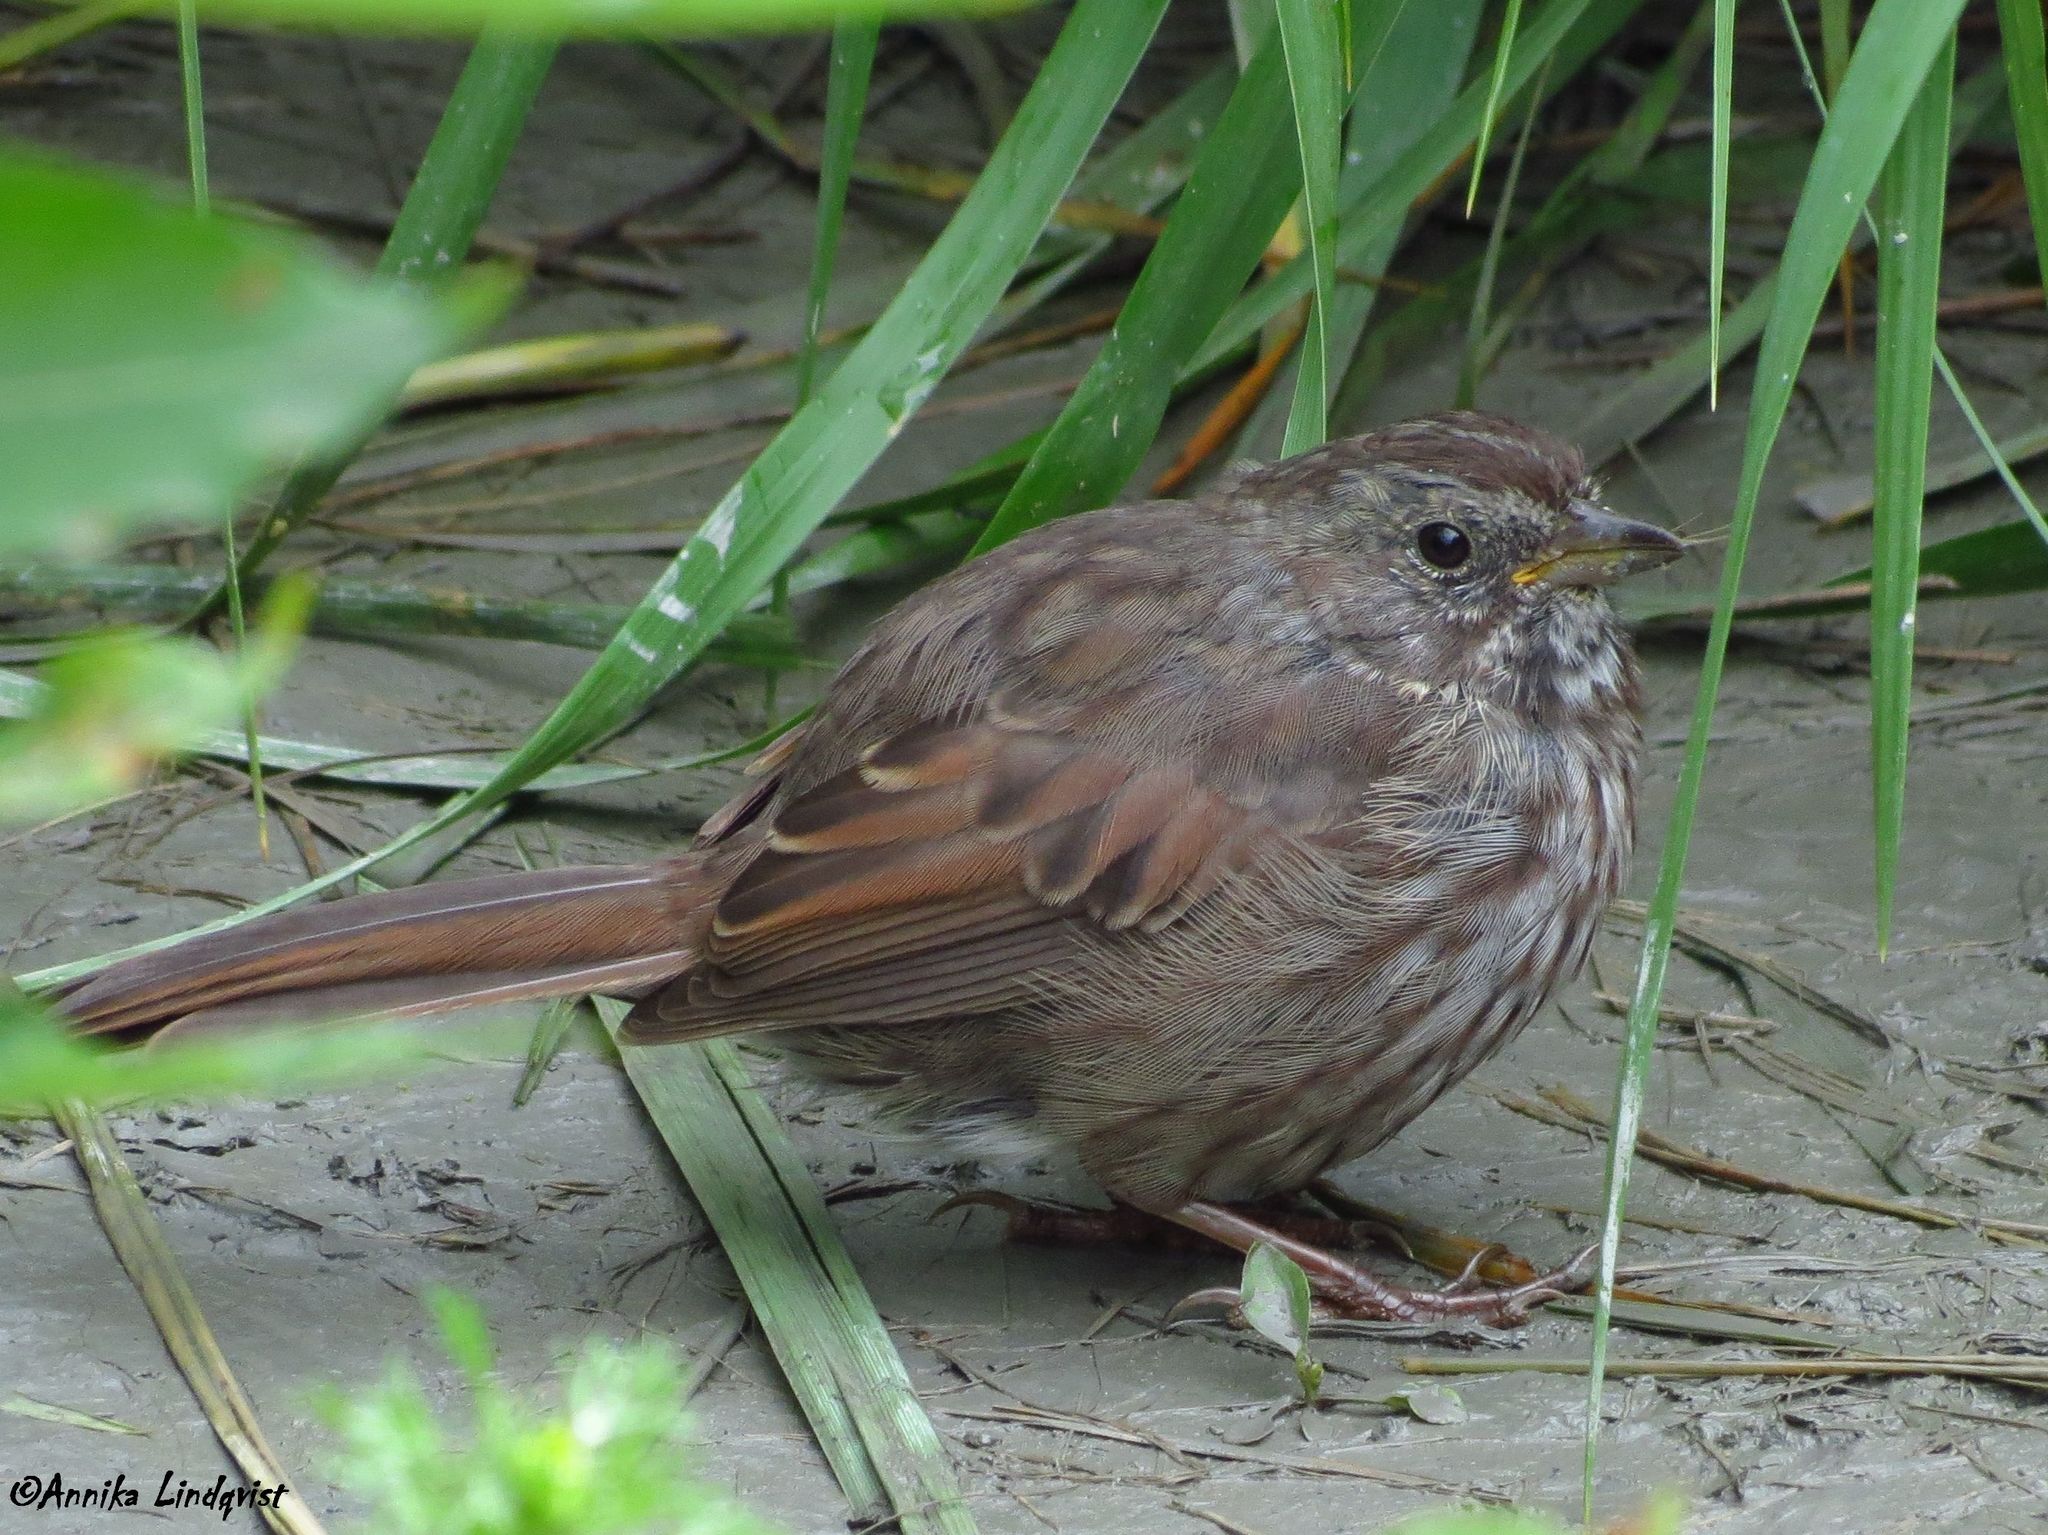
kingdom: Animalia
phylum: Chordata
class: Aves
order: Passeriformes
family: Passerellidae
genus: Melospiza
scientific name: Melospiza melodia
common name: Song sparrow
